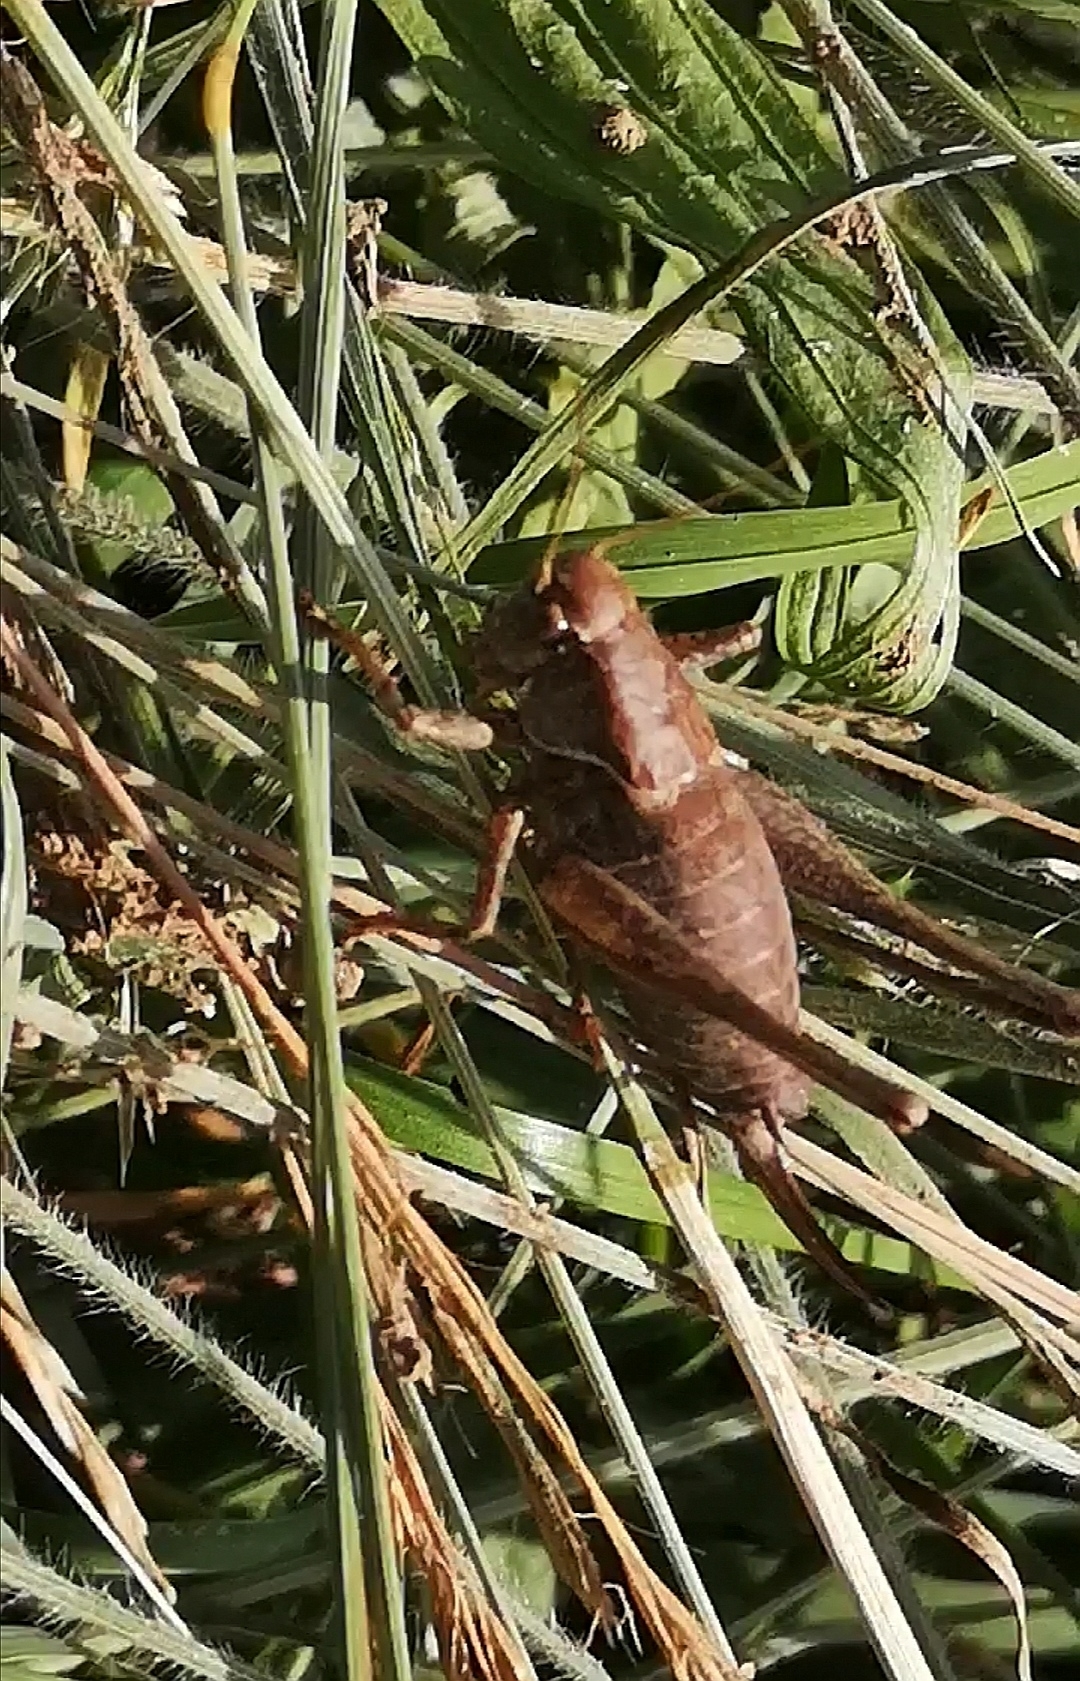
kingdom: Animalia
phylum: Arthropoda
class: Insecta
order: Orthoptera
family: Tettigoniidae
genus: Pholidoptera
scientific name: Pholidoptera griseoaptera
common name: Dark bush-cricket
